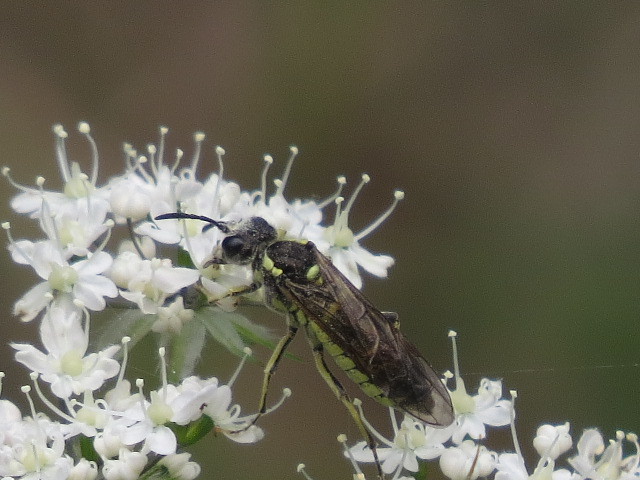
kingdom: Animalia
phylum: Arthropoda
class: Insecta
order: Hymenoptera
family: Tenthredinidae
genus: Tenthredo
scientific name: Tenthredo arcuata
